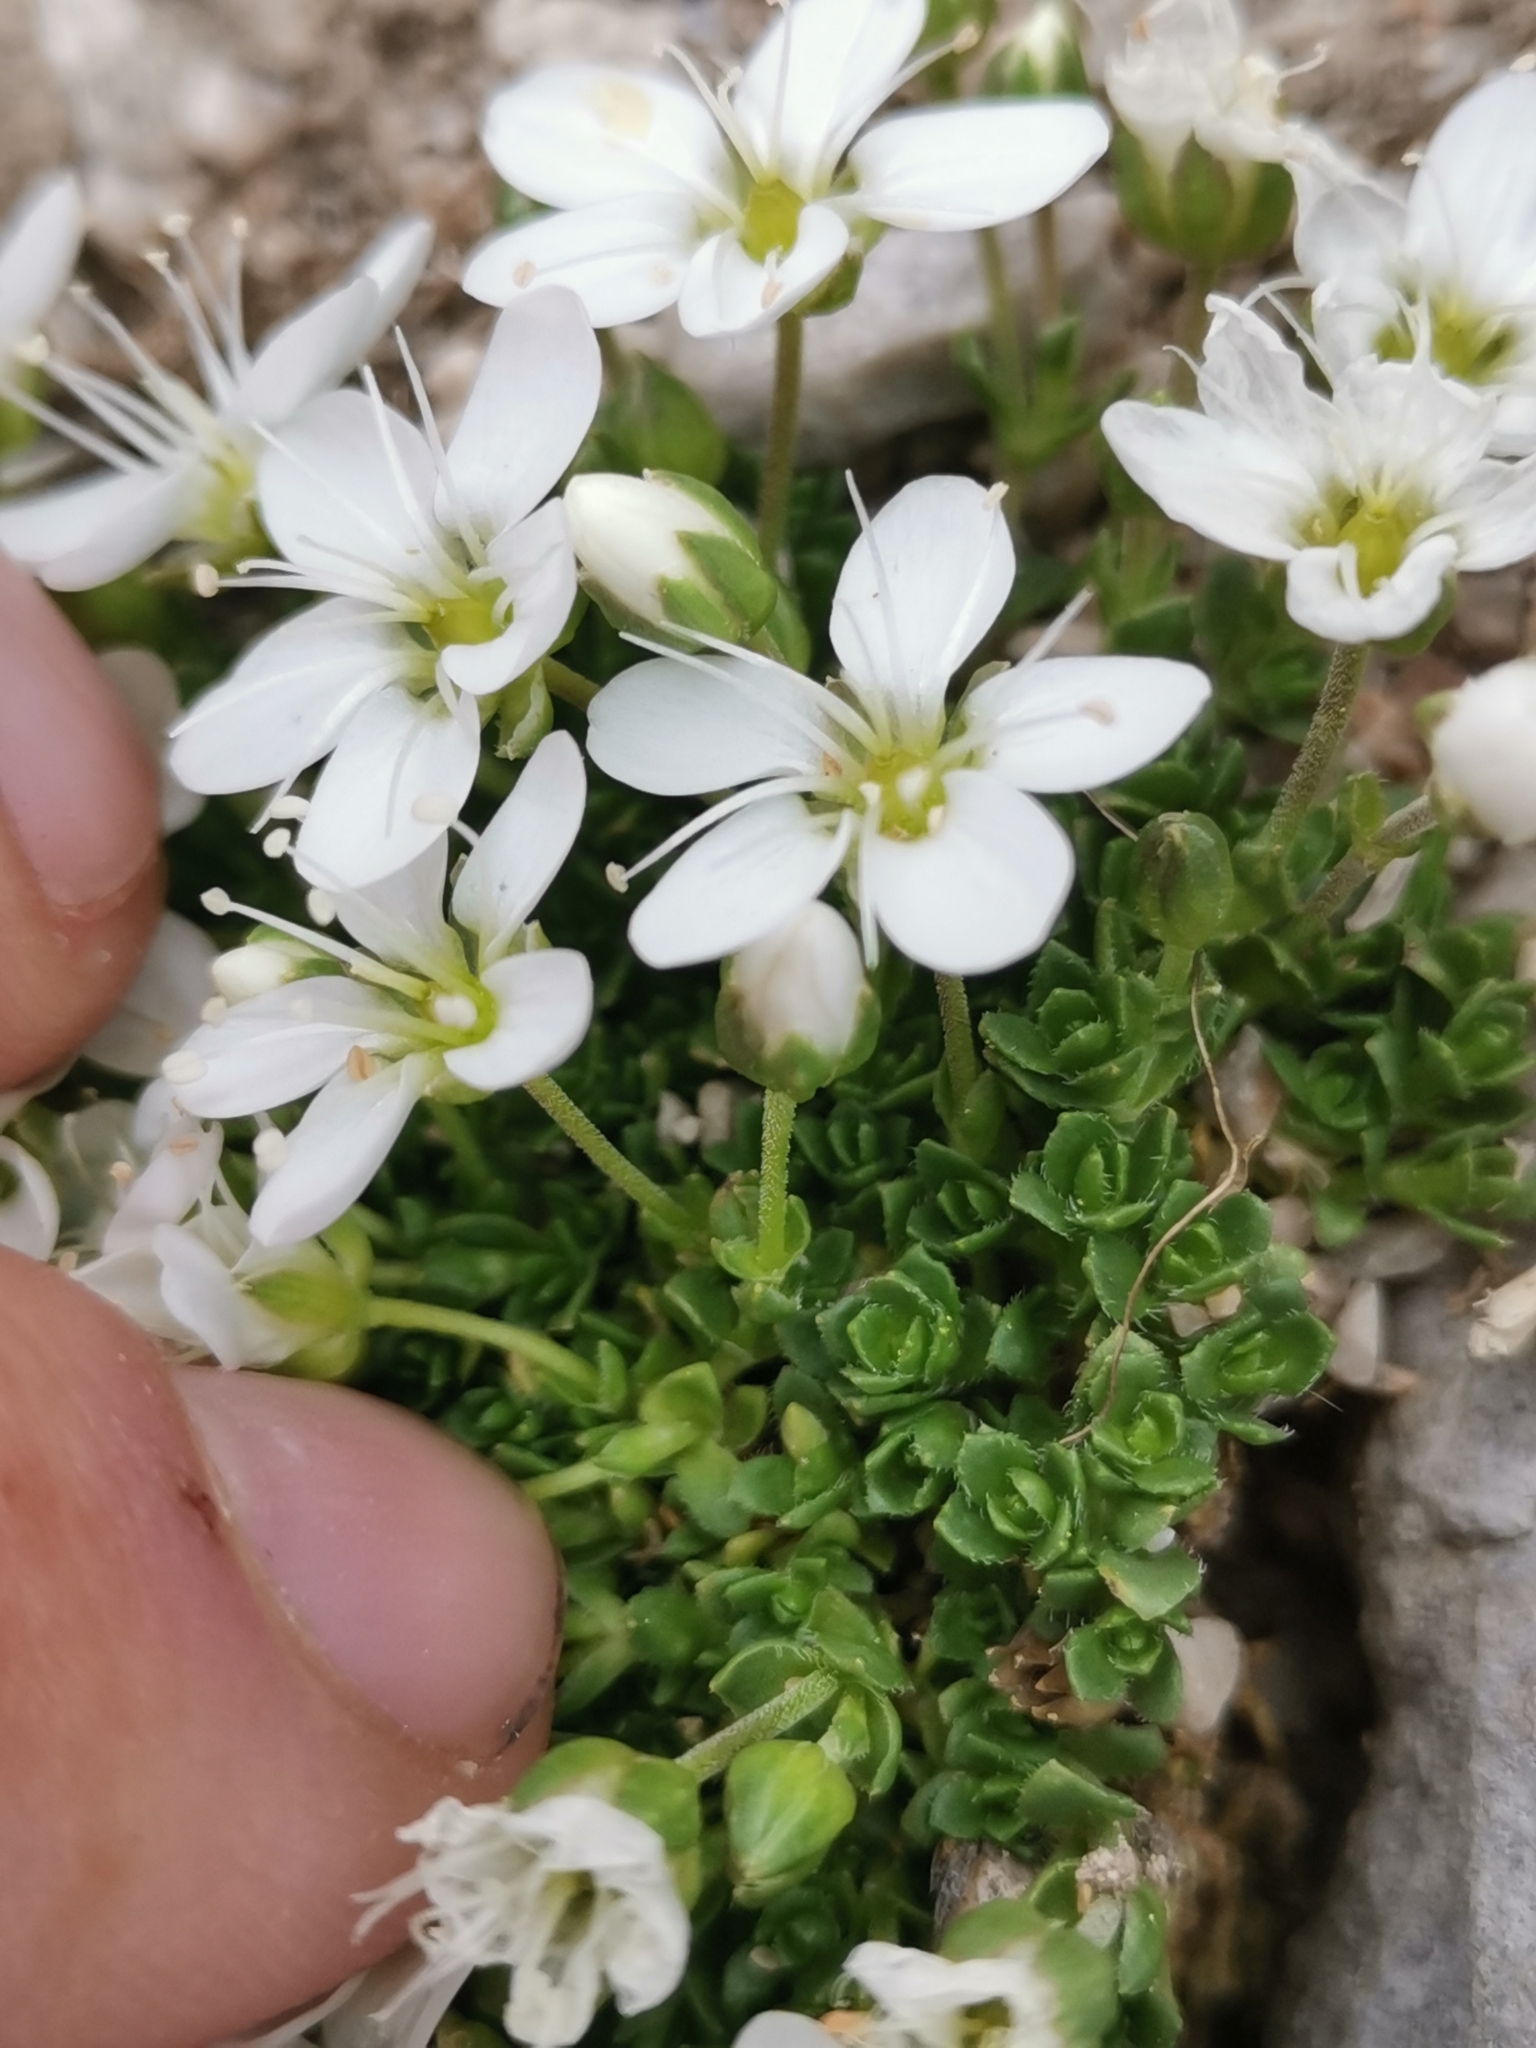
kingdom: Plantae
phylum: Tracheophyta
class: Magnoliopsida
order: Caryophyllales
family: Caryophyllaceae
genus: Arenaria
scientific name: Arenaria ciliata
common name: Fringed sandwort
